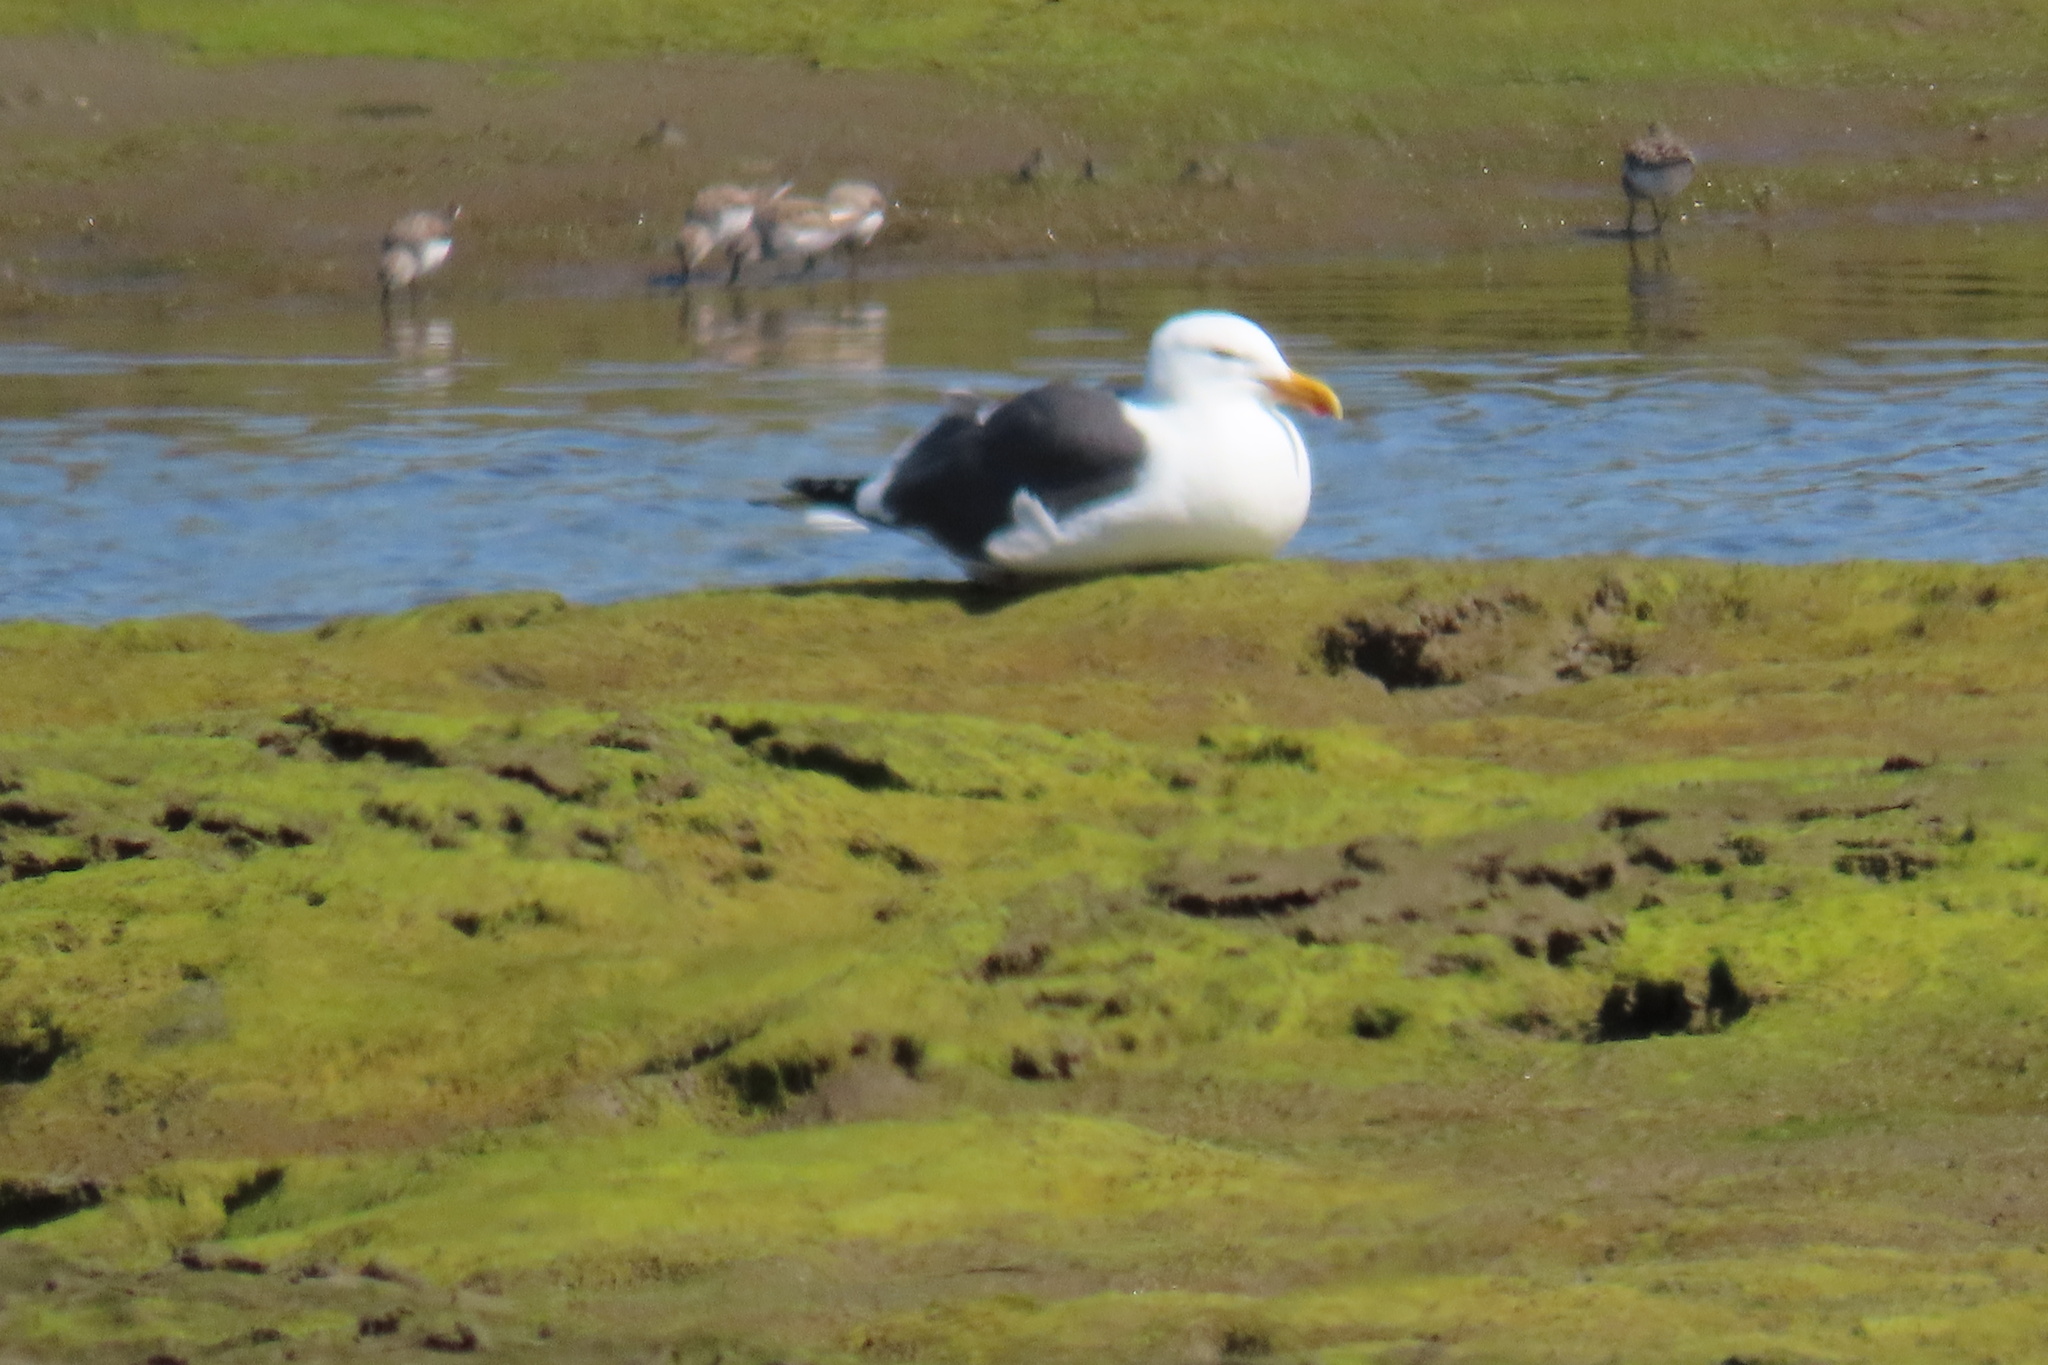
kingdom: Animalia
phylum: Chordata
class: Aves
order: Charadriiformes
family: Laridae
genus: Larus
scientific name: Larus occidentalis
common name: Western gull
